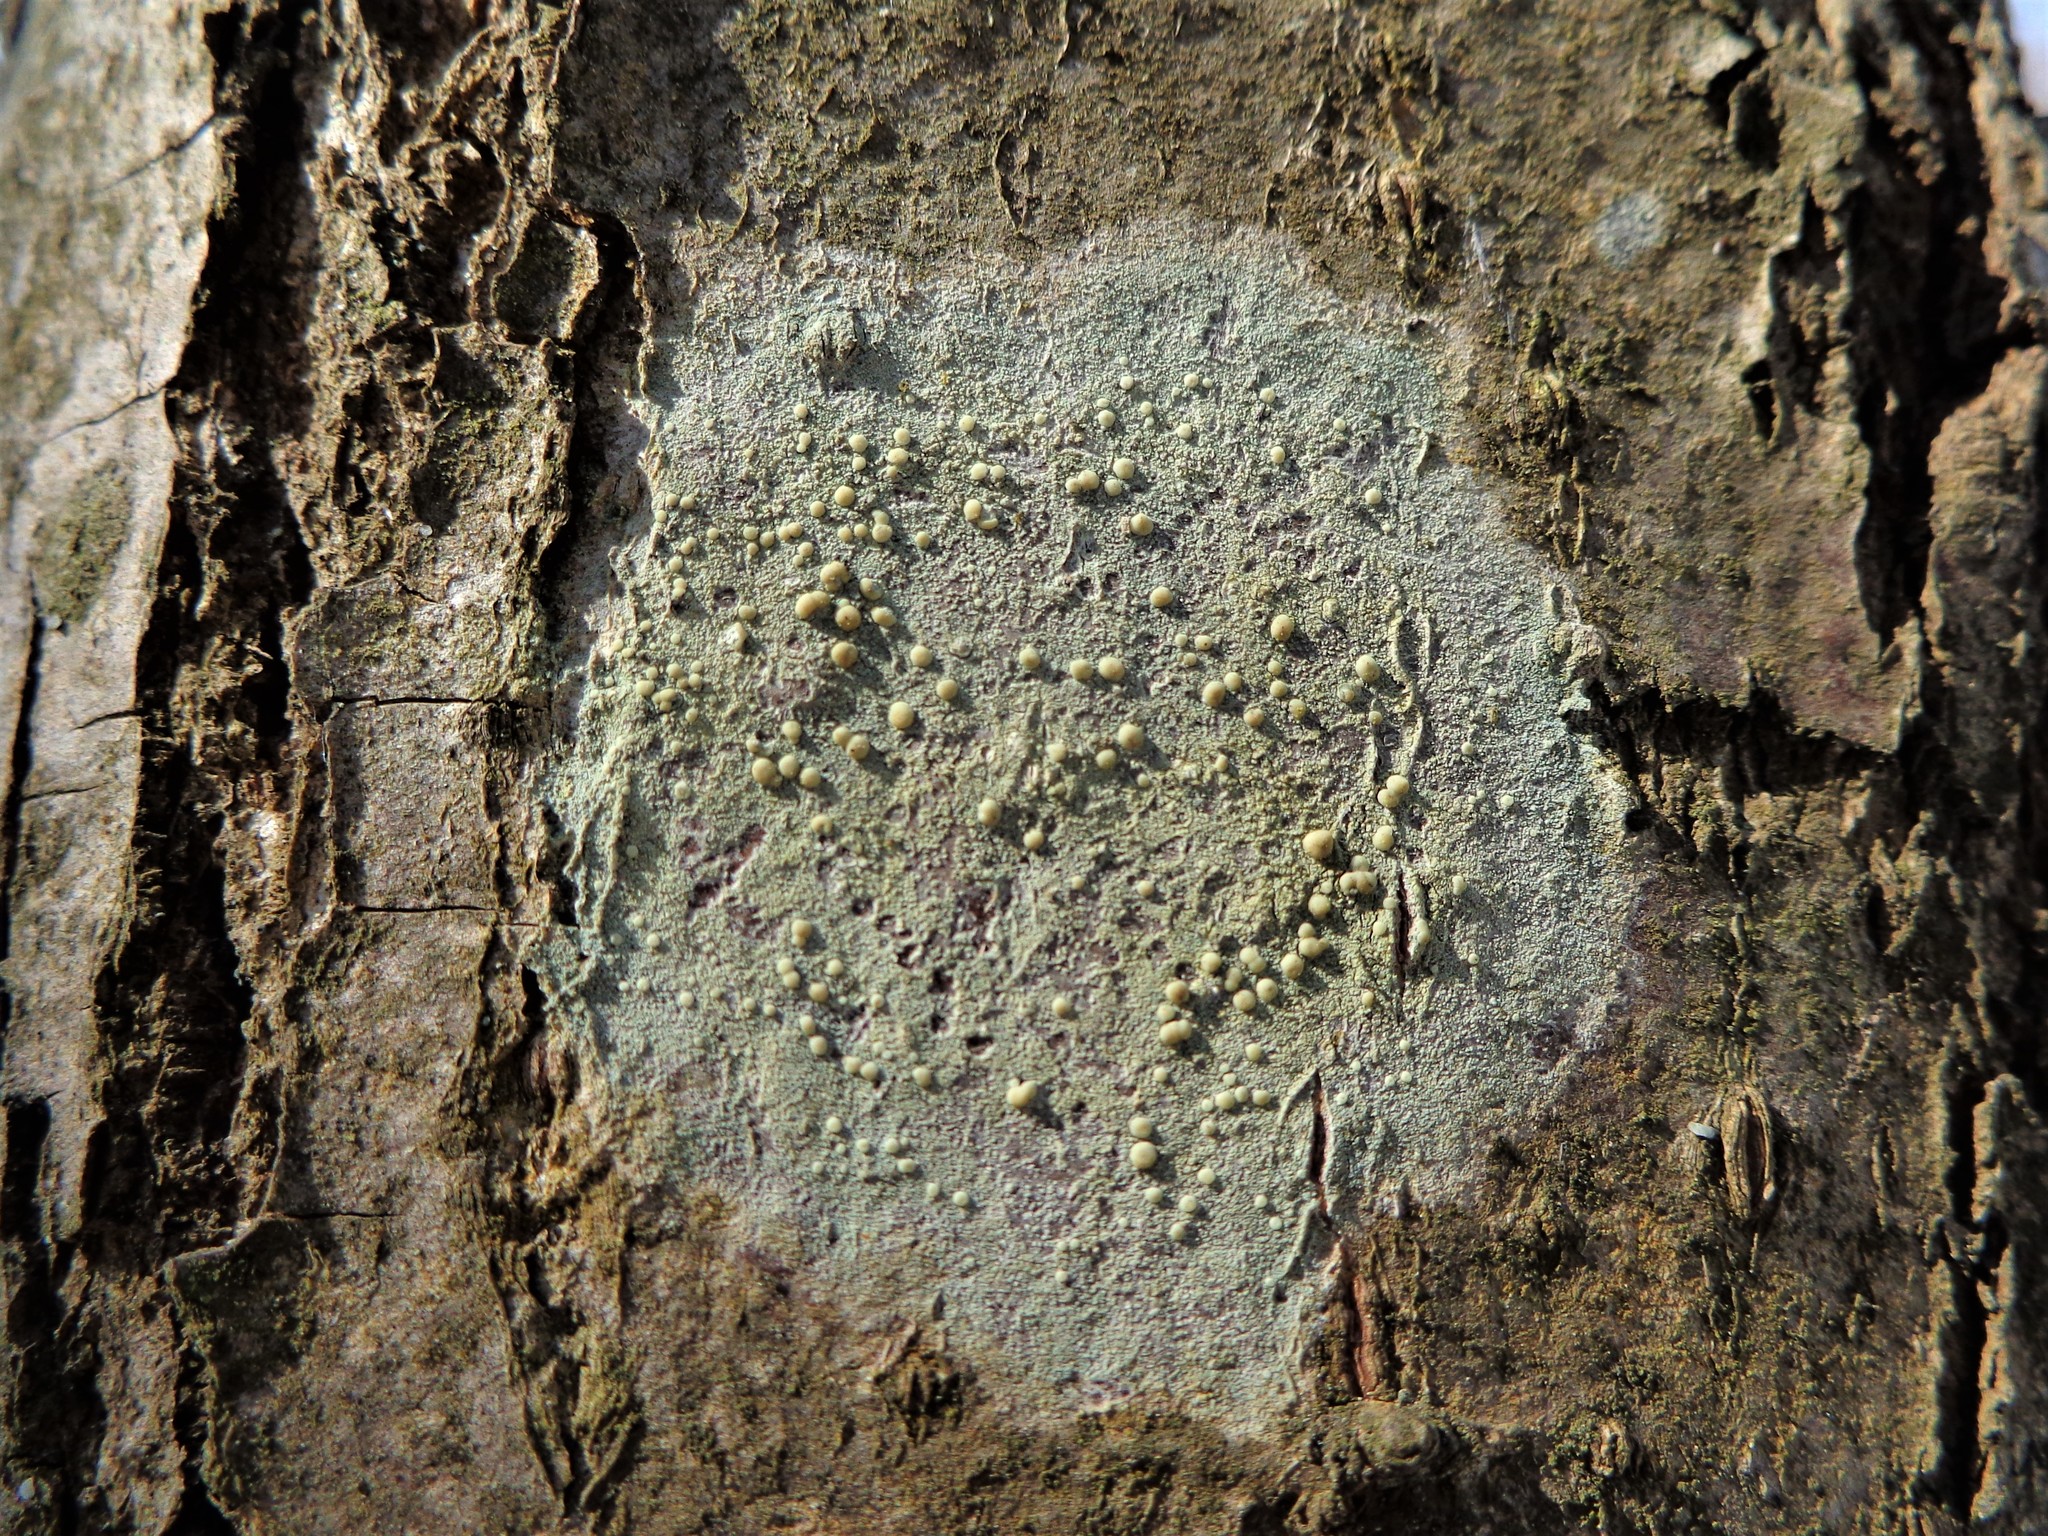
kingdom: Fungi
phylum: Ascomycota
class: Lecanoromycetes
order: Lecanorales
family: Lecanoraceae
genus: Lecanora
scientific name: Lecanora symmicta
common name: Fused rim lichen
